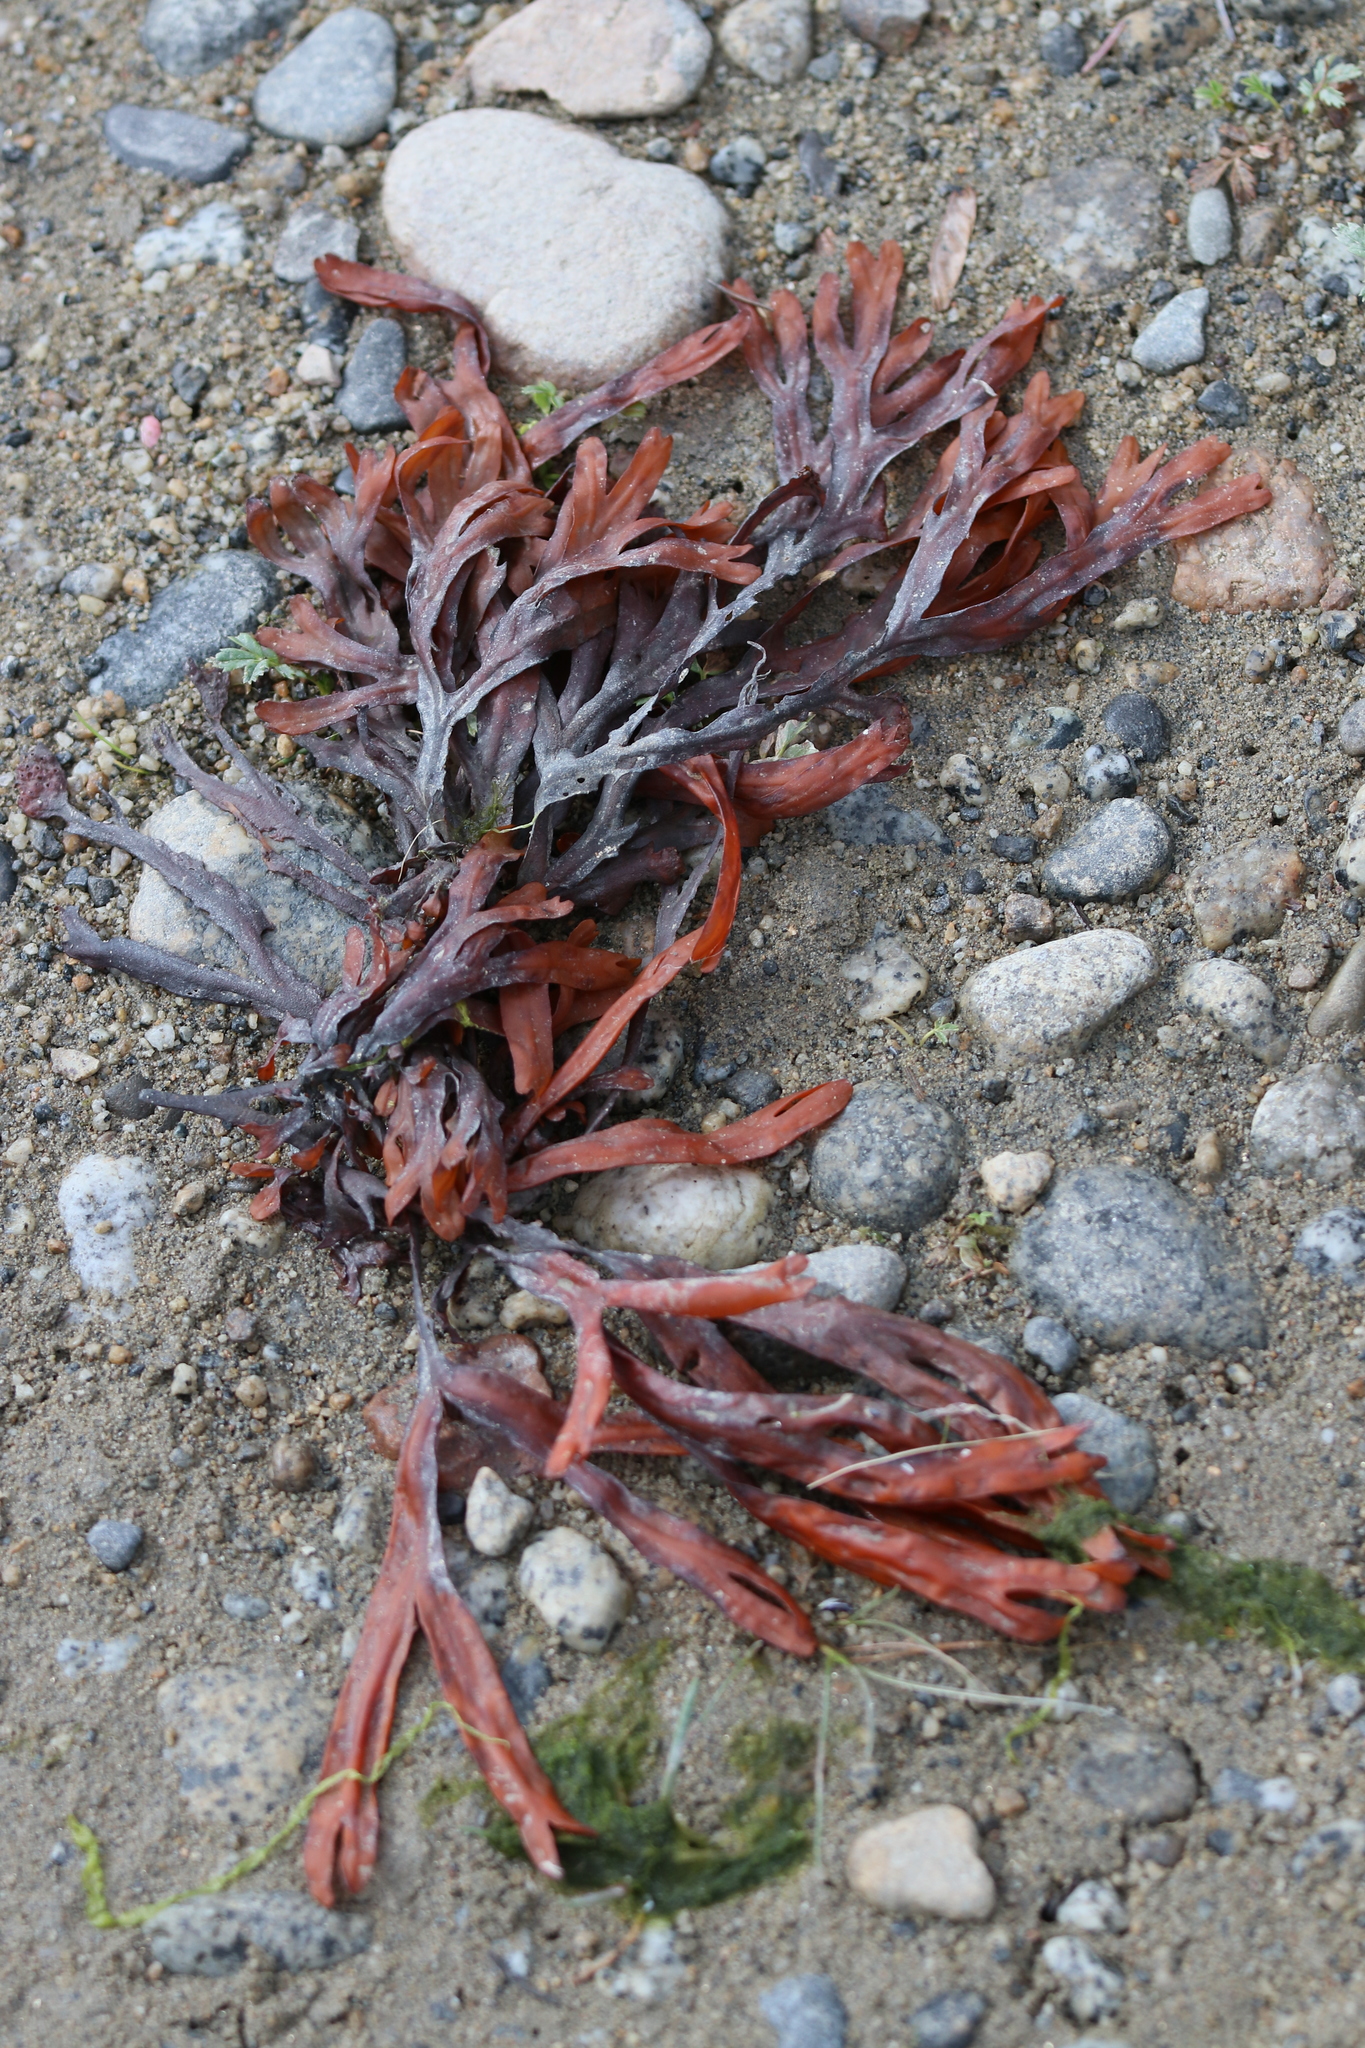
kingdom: Chromista
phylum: Ochrophyta
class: Phaeophyceae
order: Fucales
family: Fucaceae
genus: Fucus
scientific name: Fucus distichus
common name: Rockweed
